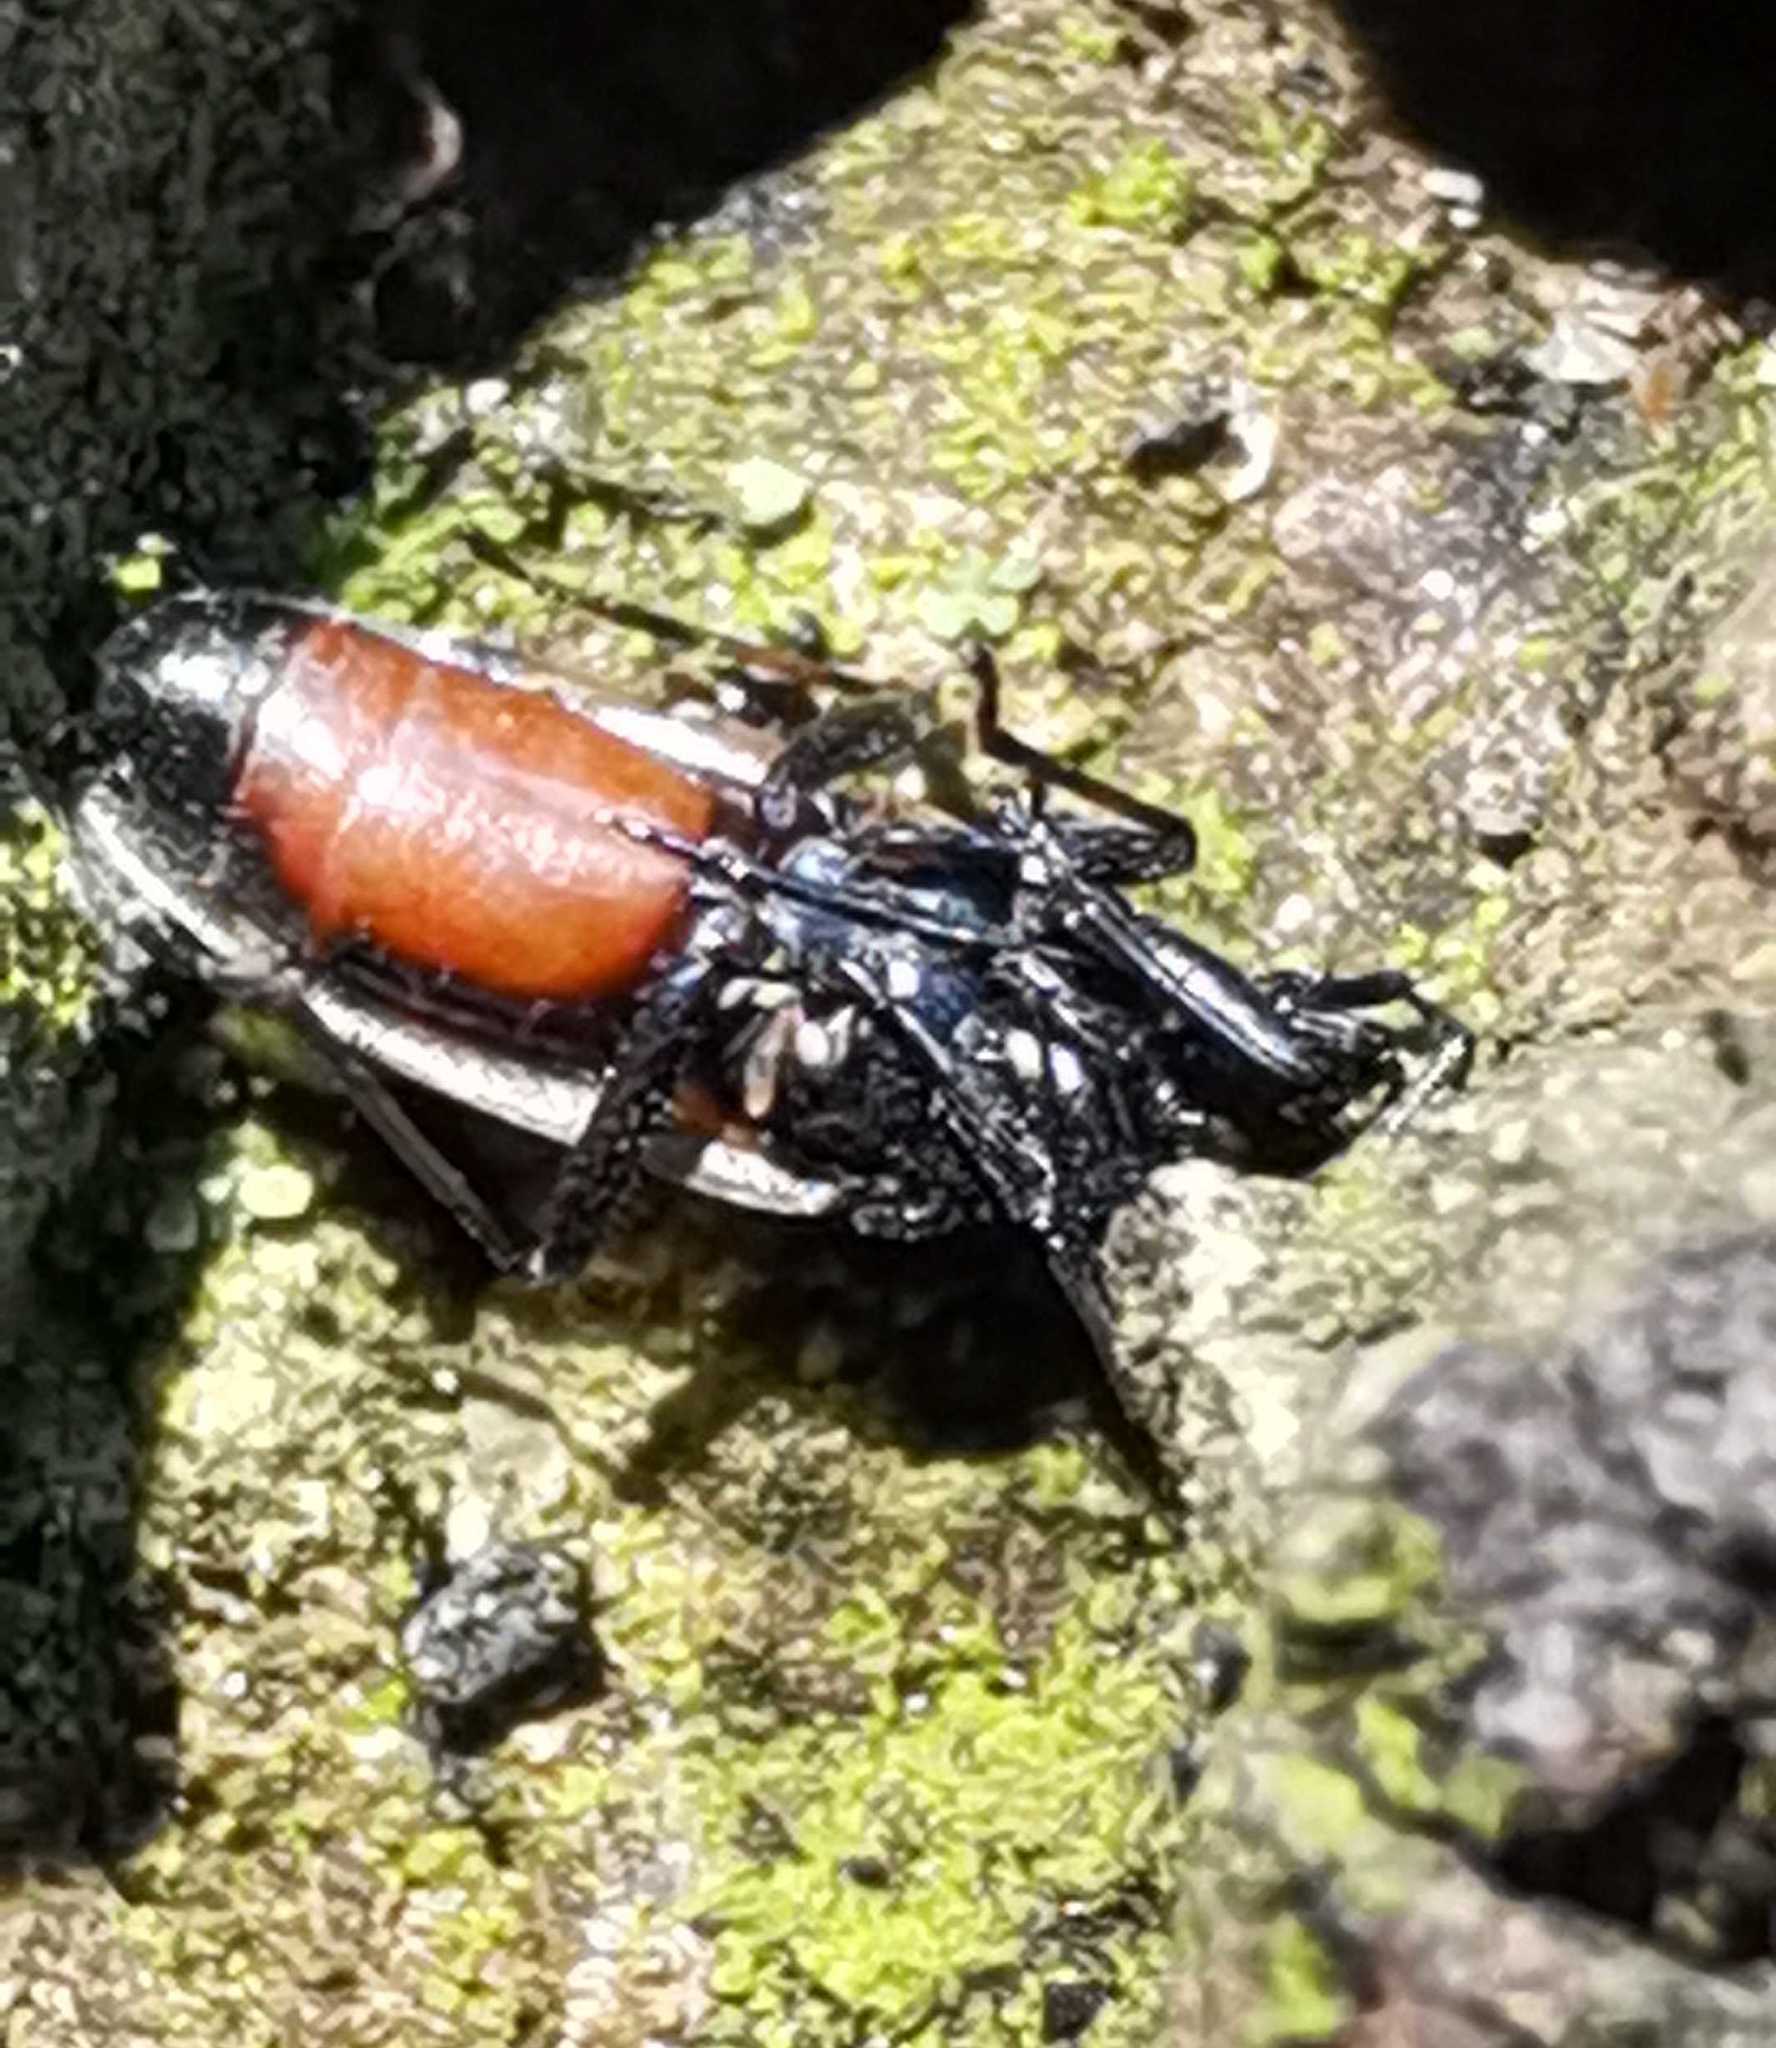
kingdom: Animalia
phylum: Arthropoda
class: Insecta
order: Hemiptera
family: Oxycarenidae
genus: Oxycarenus
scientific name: Oxycarenus lavaterae
